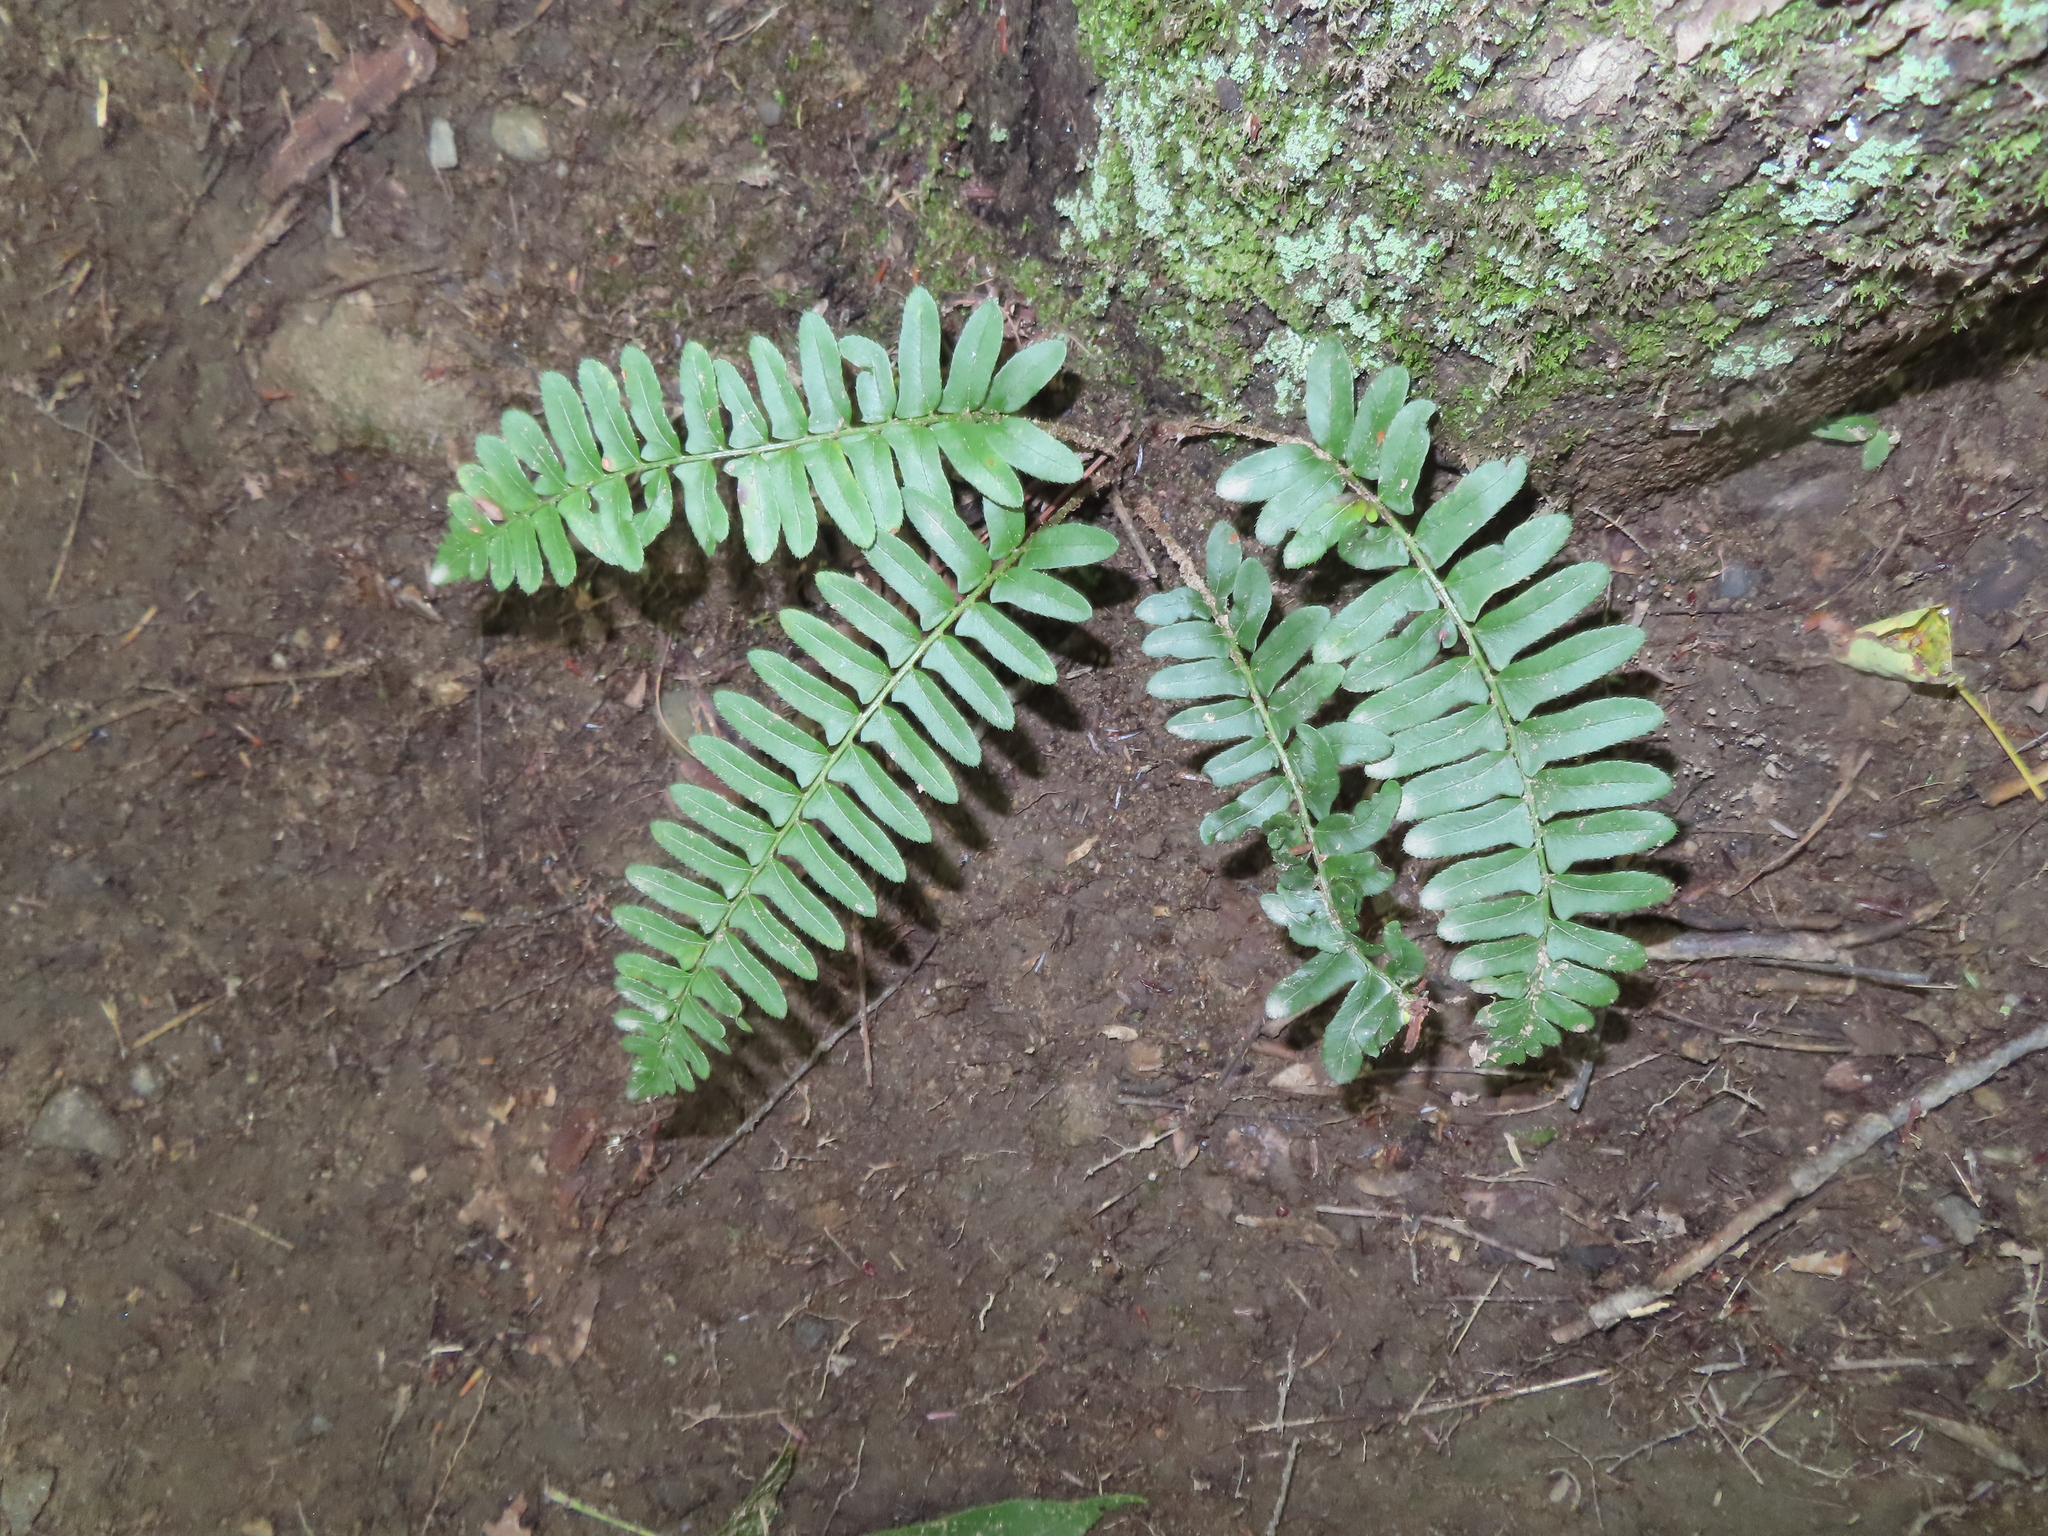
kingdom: Plantae
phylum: Tracheophyta
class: Polypodiopsida
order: Polypodiales
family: Dryopteridaceae
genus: Polystichum
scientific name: Polystichum acrostichoides
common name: Christmas fern
